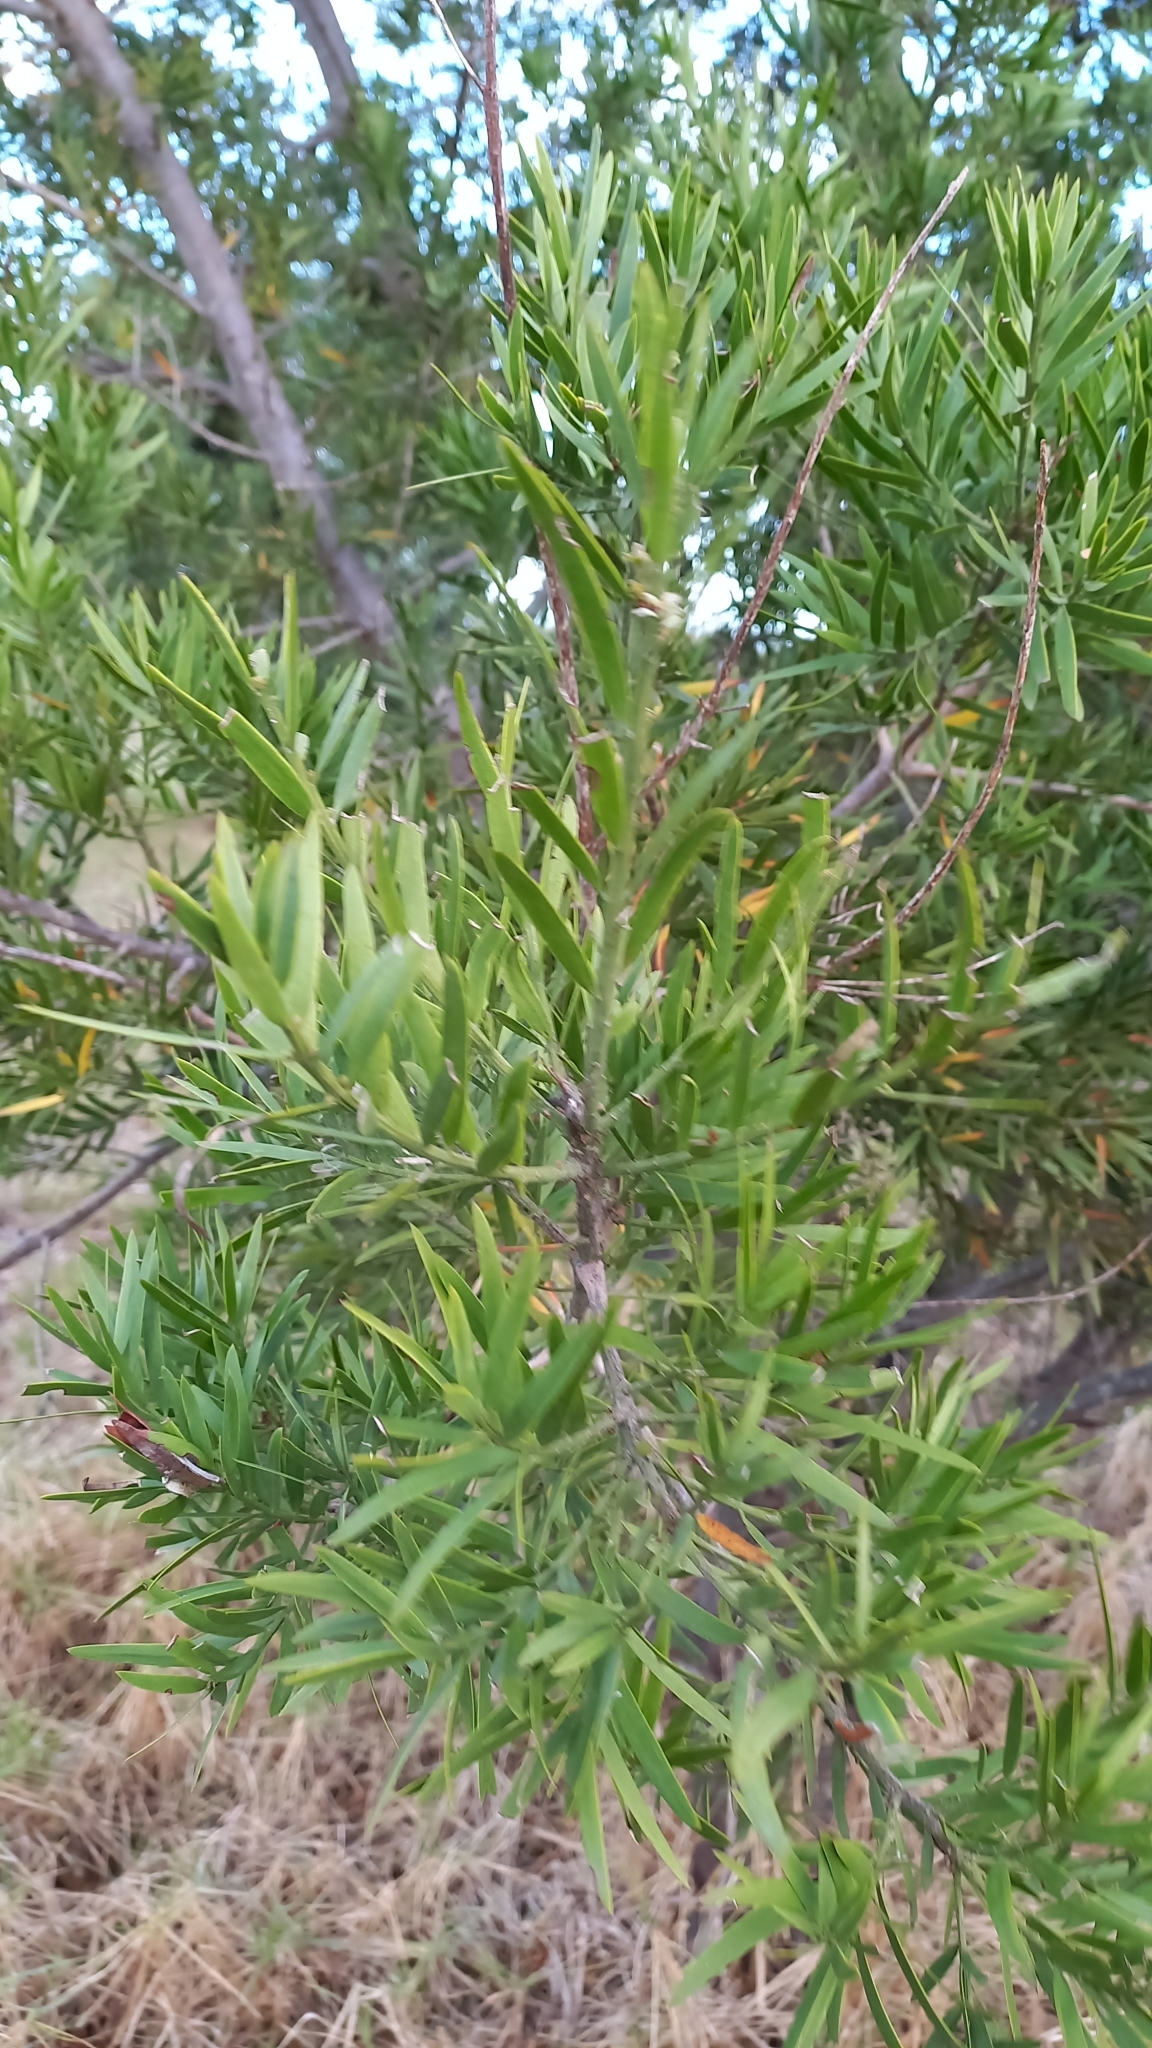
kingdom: Plantae
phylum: Tracheophyta
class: Pinopsida
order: Pinales
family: Podocarpaceae
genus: Afrocarpus
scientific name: Afrocarpus falcatus
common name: Bastard yellowwood
